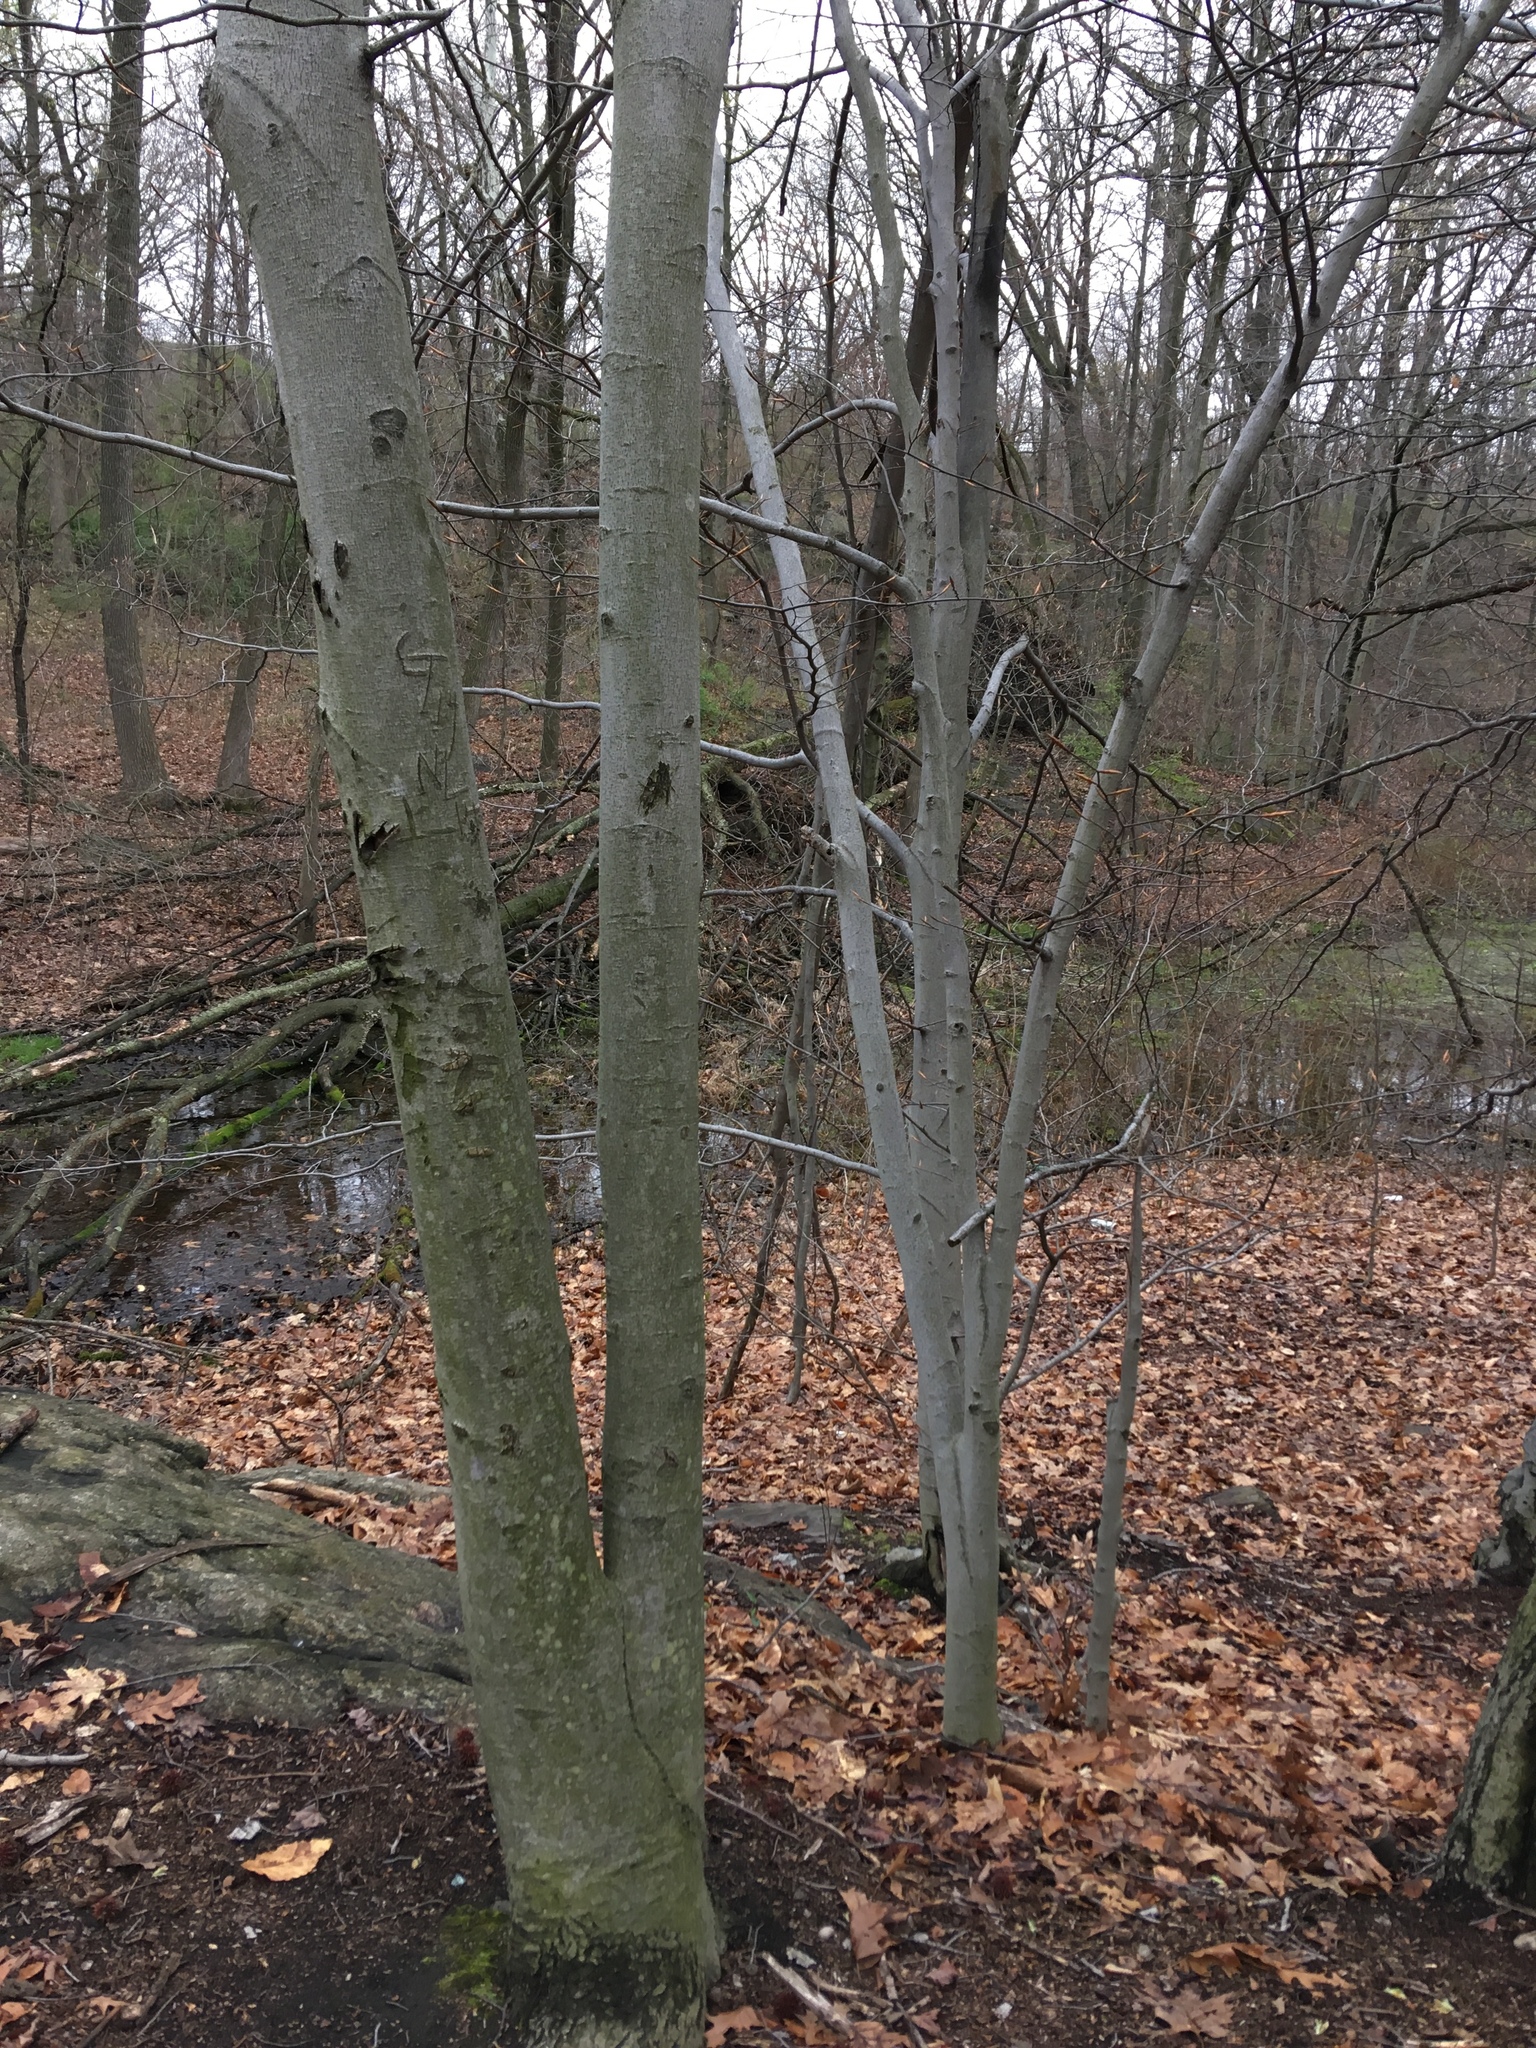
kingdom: Plantae
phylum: Tracheophyta
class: Magnoliopsida
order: Fagales
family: Fagaceae
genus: Fagus
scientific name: Fagus grandifolia
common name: American beech
